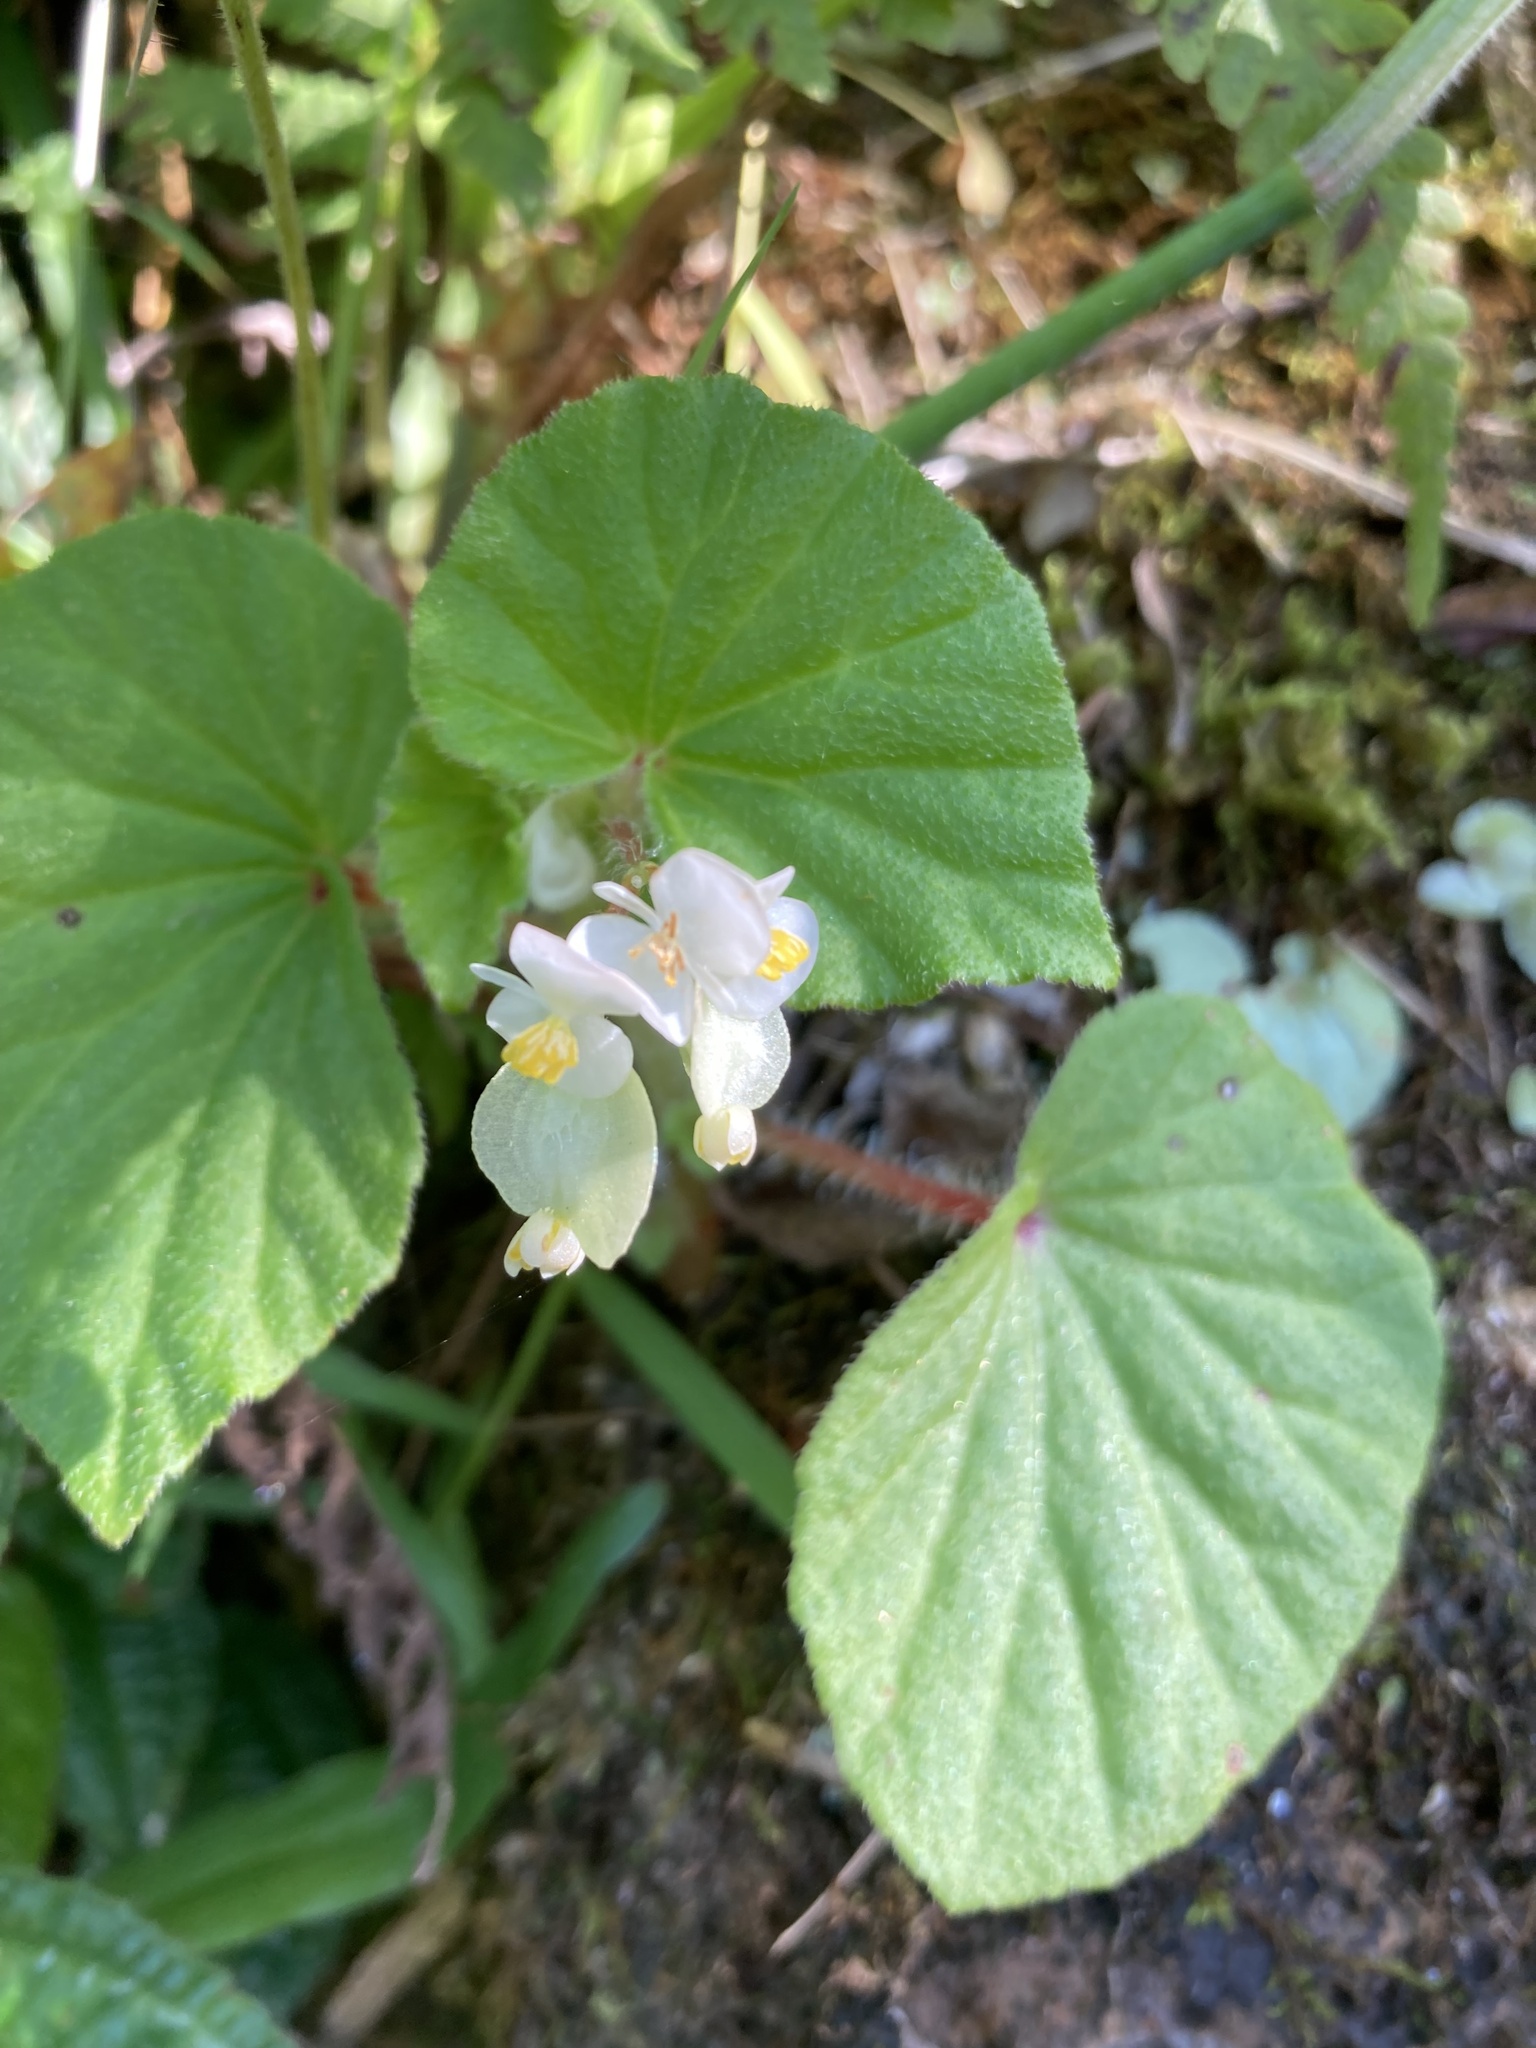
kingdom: Plantae
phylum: Tracheophyta
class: Magnoliopsida
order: Cucurbitales
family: Begoniaceae
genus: Begonia
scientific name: Begonia hirtella
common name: Brazilian begonia
